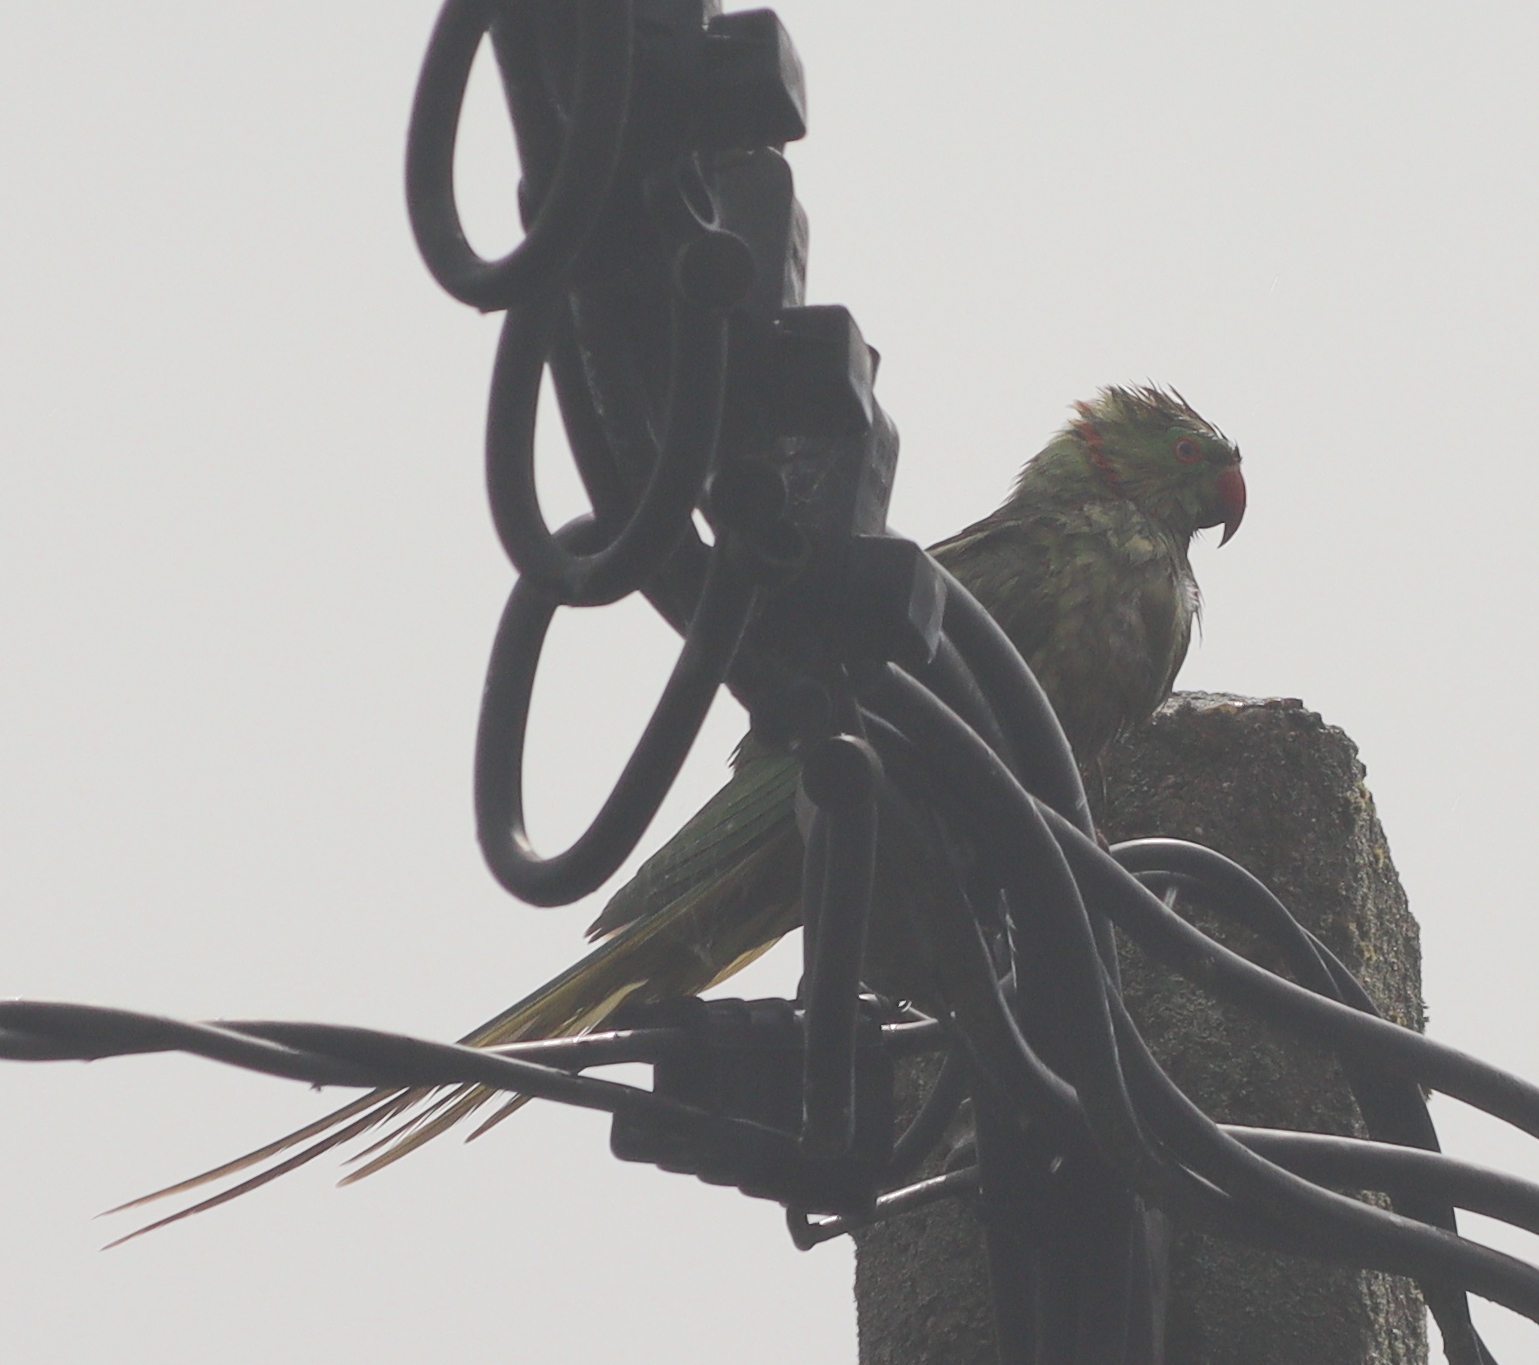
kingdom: Animalia
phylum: Chordata
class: Aves
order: Psittaciformes
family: Psittacidae
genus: Psittacula
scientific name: Psittacula krameri
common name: Rose-ringed parakeet
